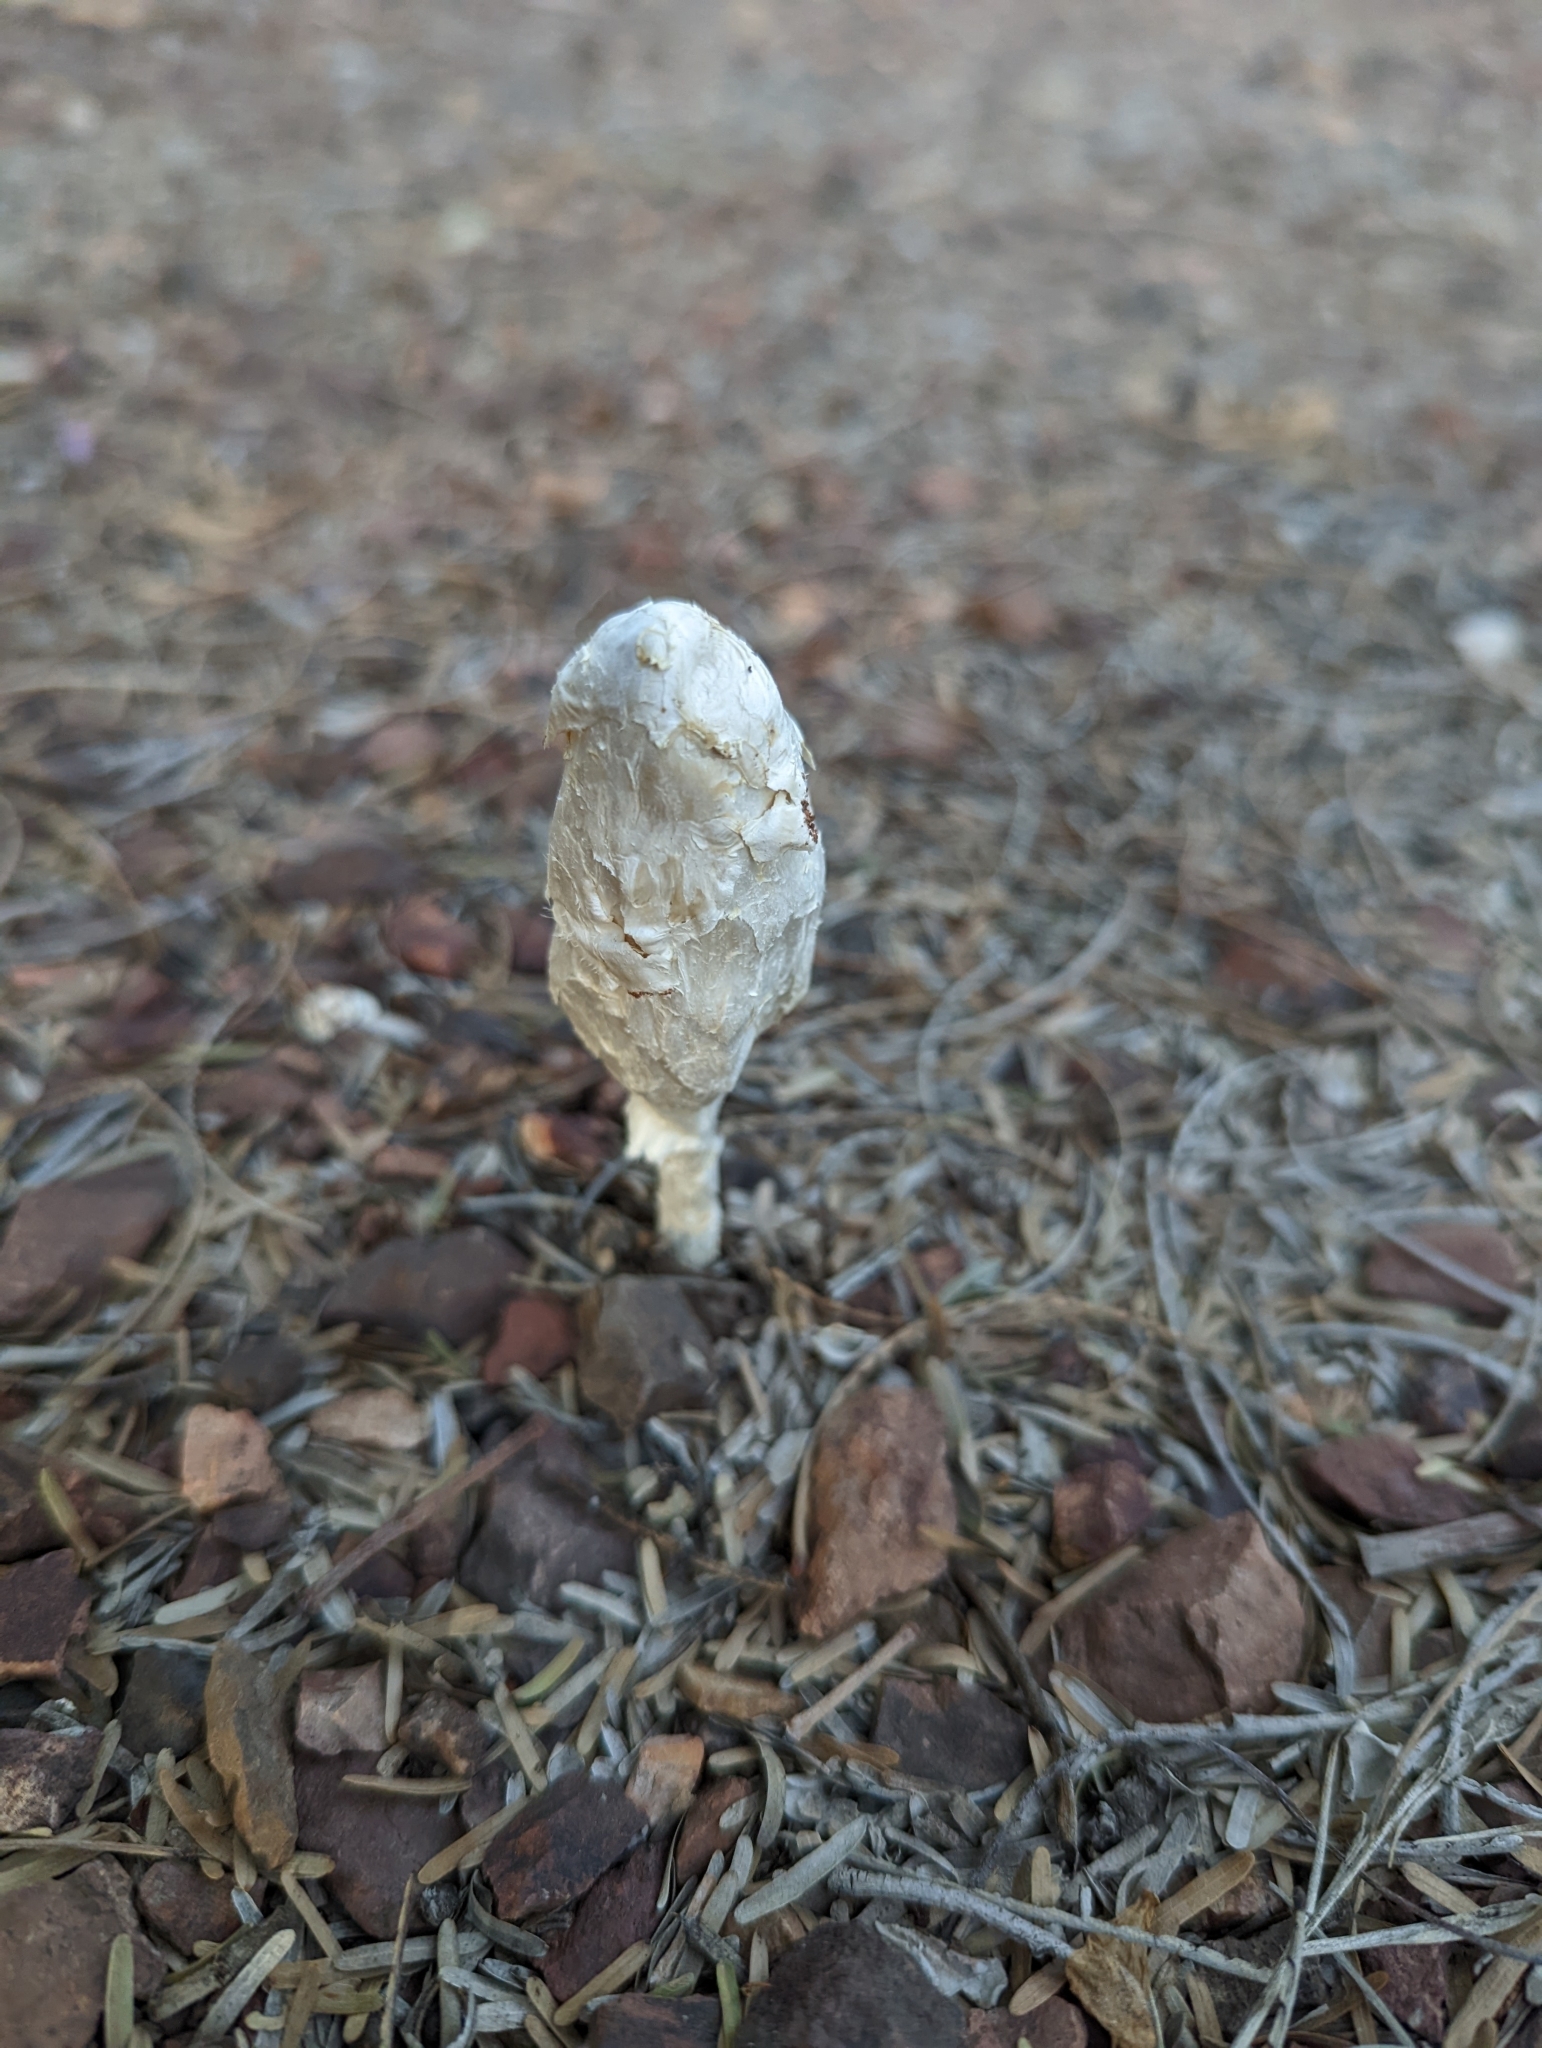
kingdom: Fungi
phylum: Basidiomycota
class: Agaricomycetes
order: Agaricales
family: Agaricaceae
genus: Podaxis
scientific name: Podaxis pistillaris
